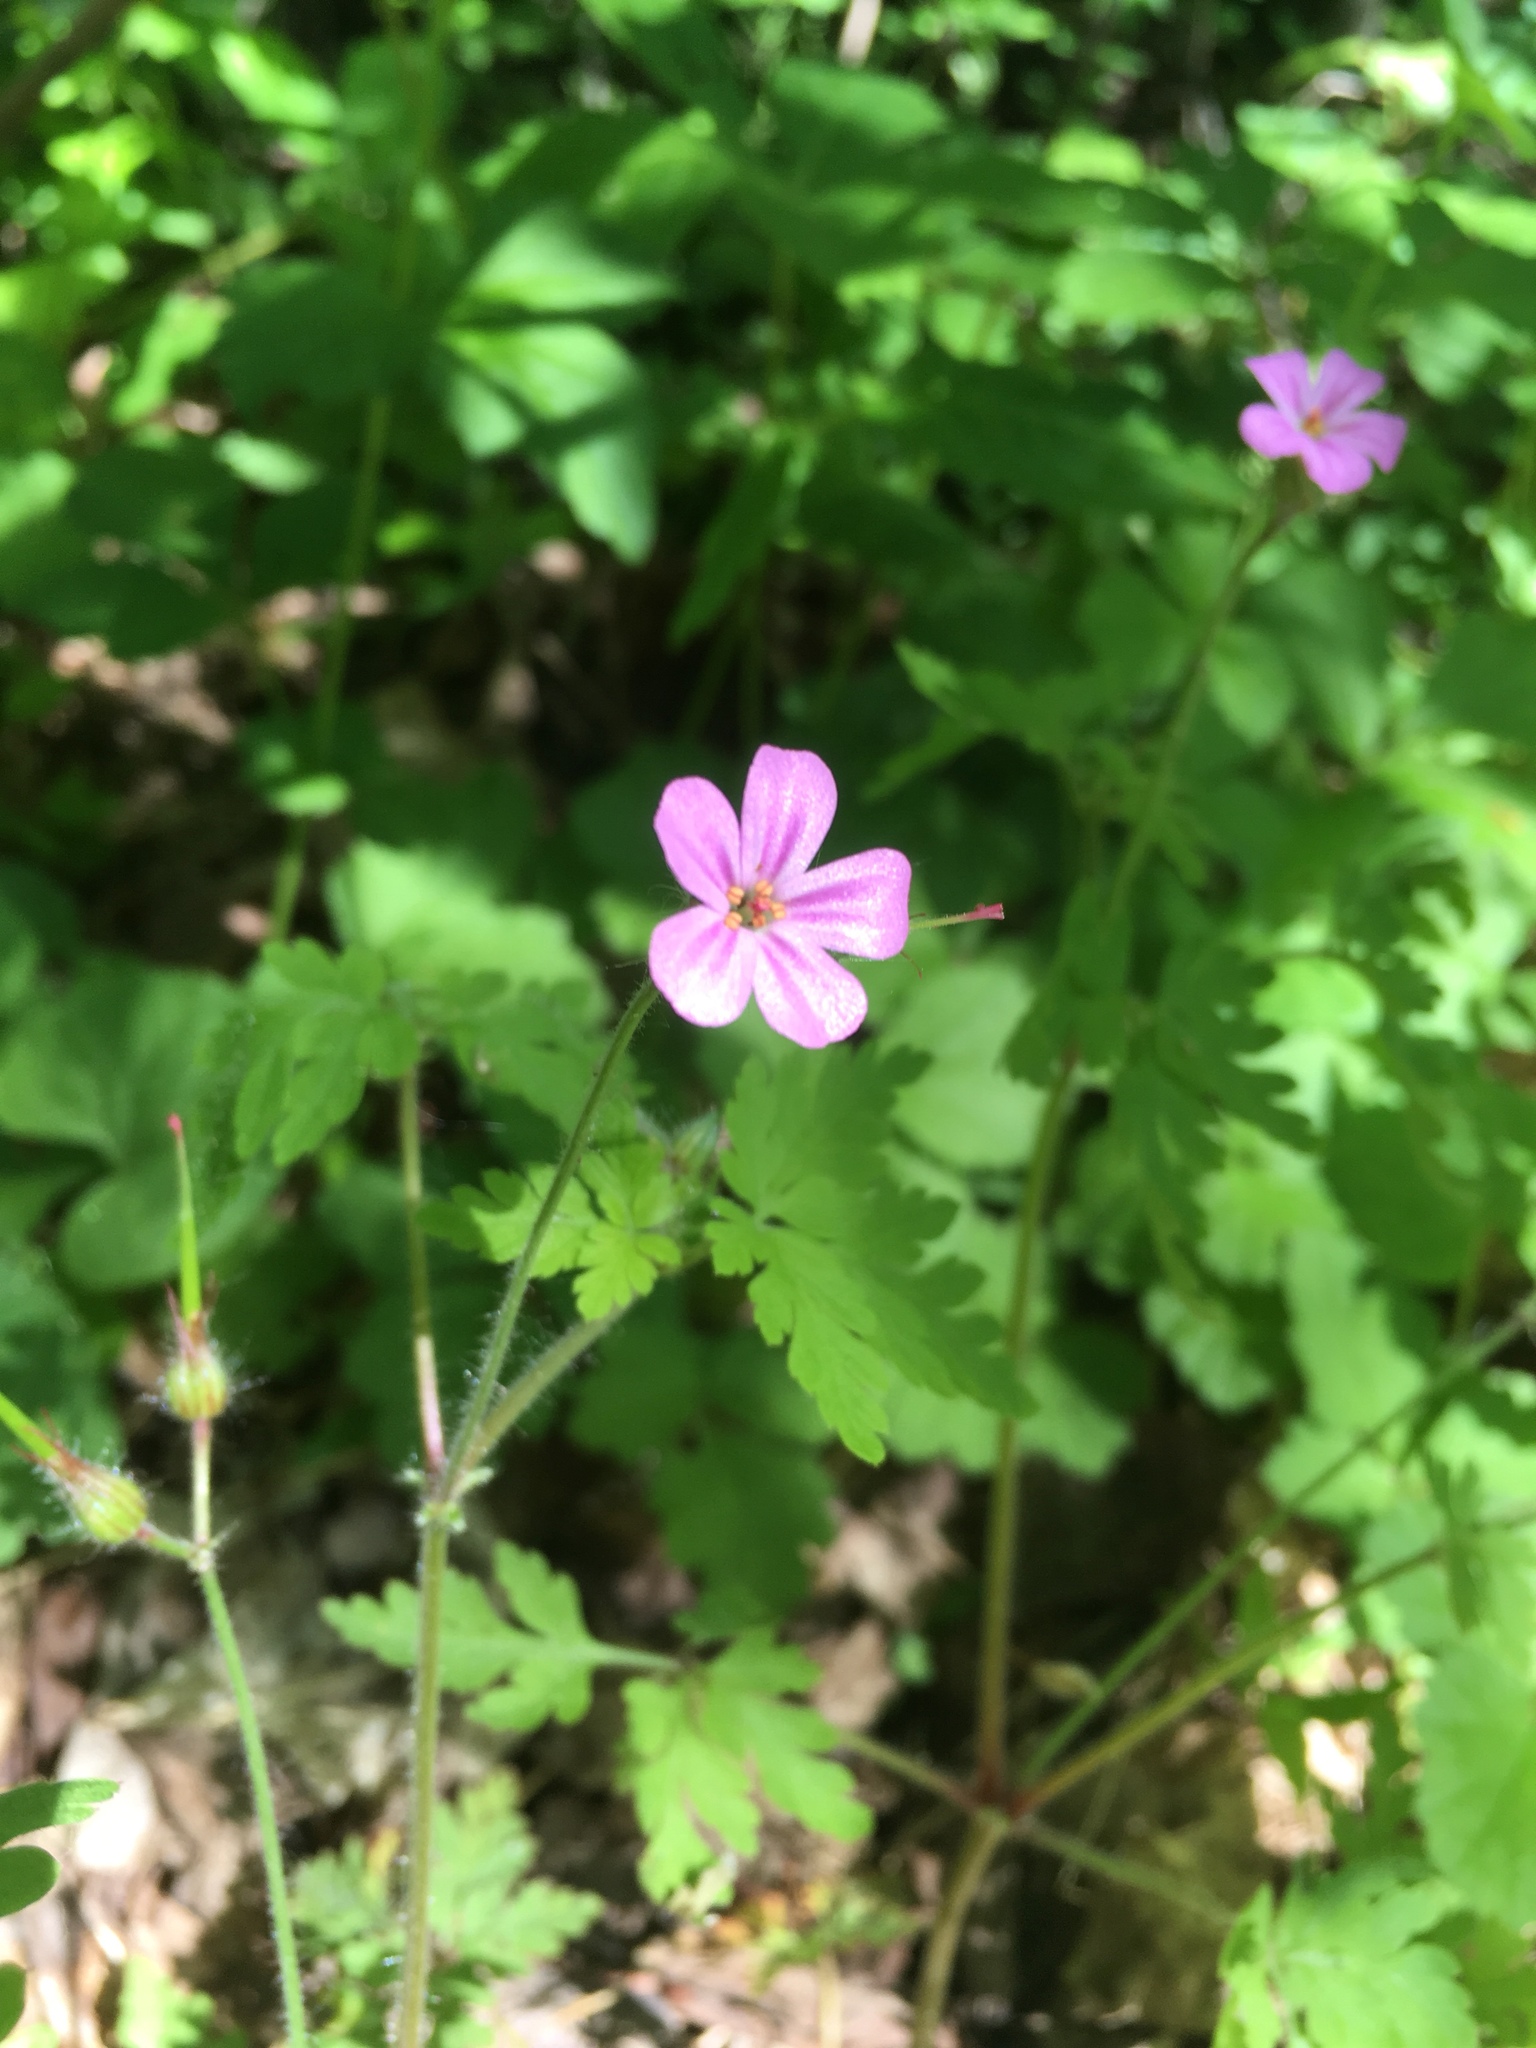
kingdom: Plantae
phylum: Tracheophyta
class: Magnoliopsida
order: Geraniales
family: Geraniaceae
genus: Geranium
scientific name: Geranium robertianum
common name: Herb-robert
